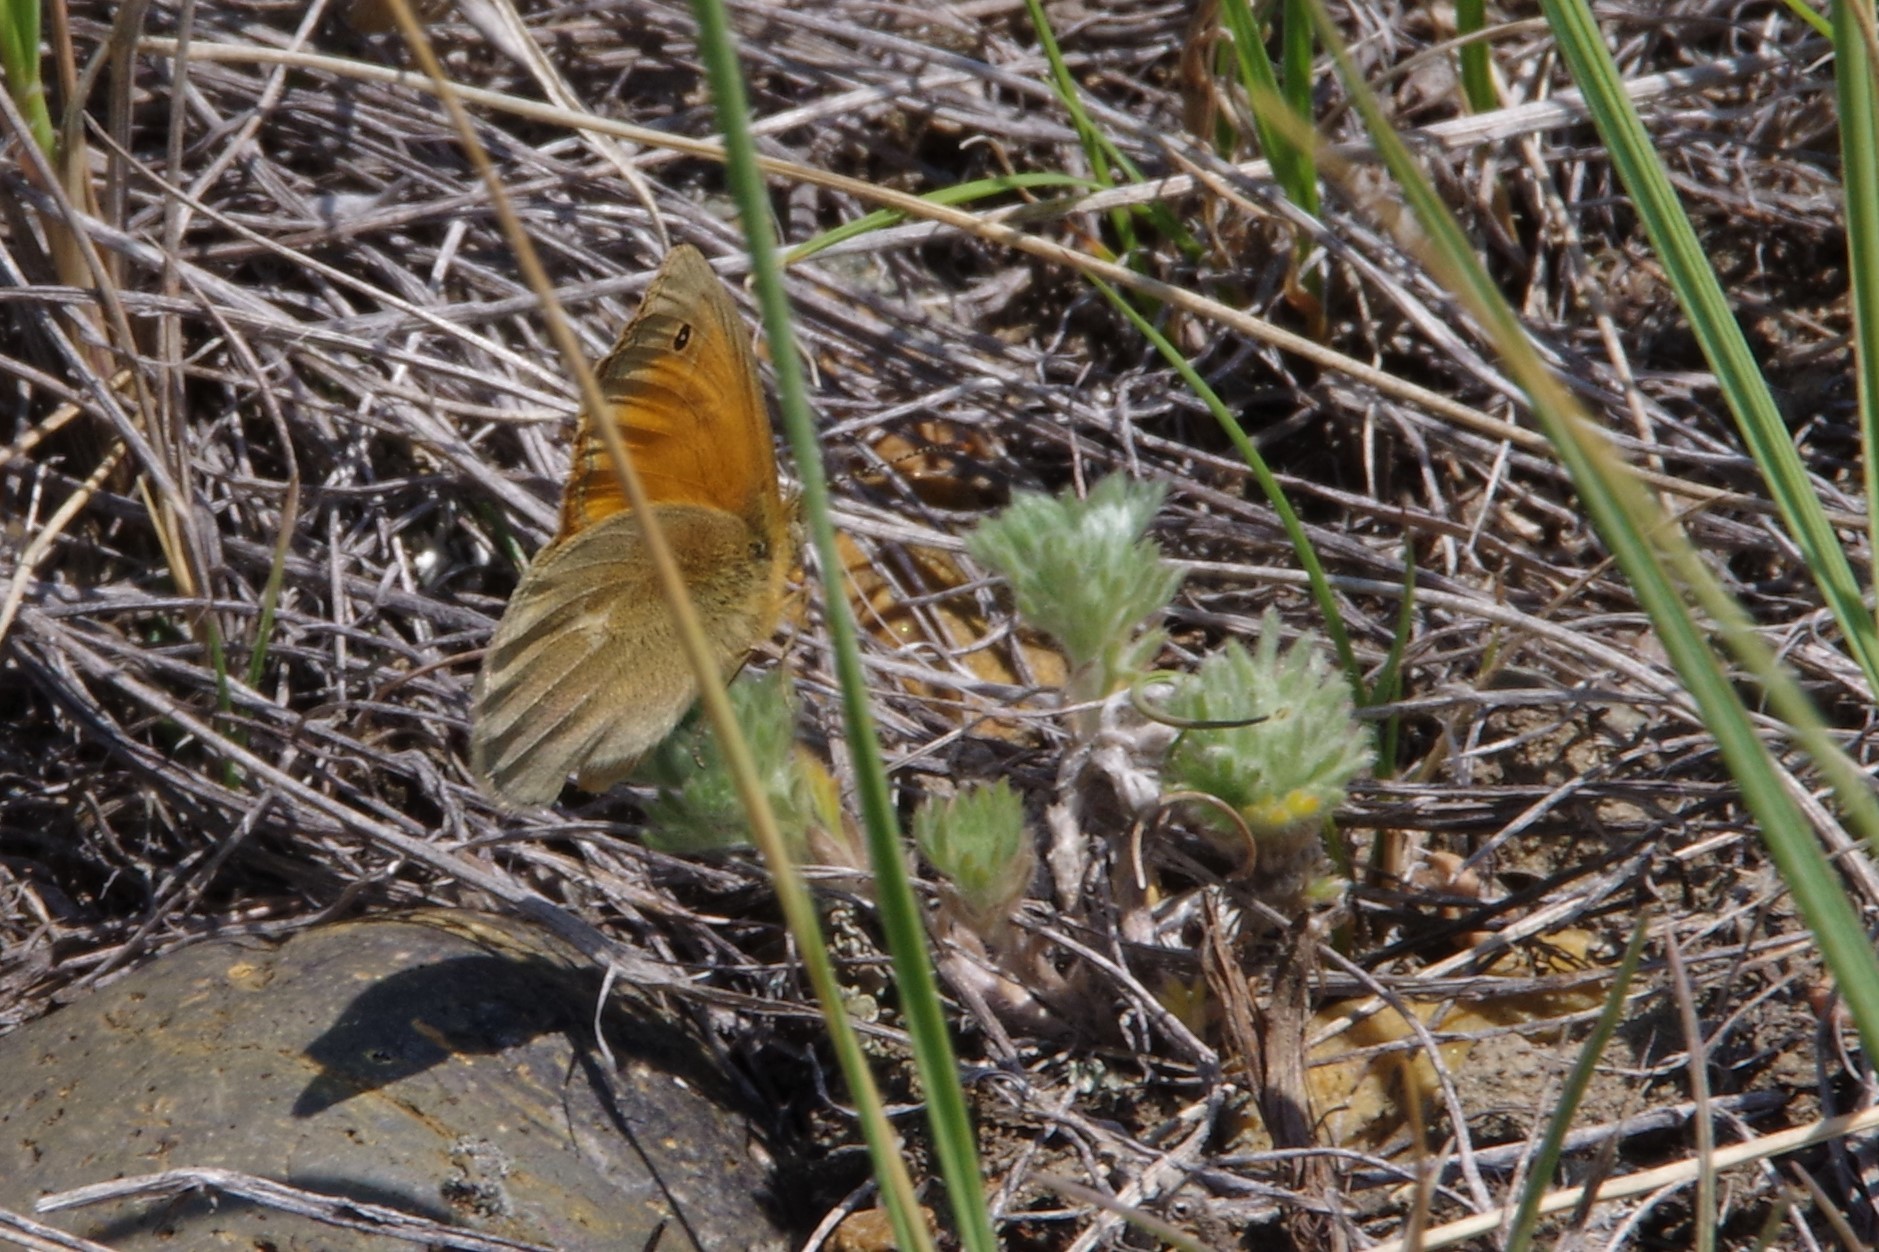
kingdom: Animalia
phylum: Arthropoda
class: Insecta
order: Lepidoptera
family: Nymphalidae
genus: Coenonympha
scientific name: Coenonympha california
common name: Common ringlet
